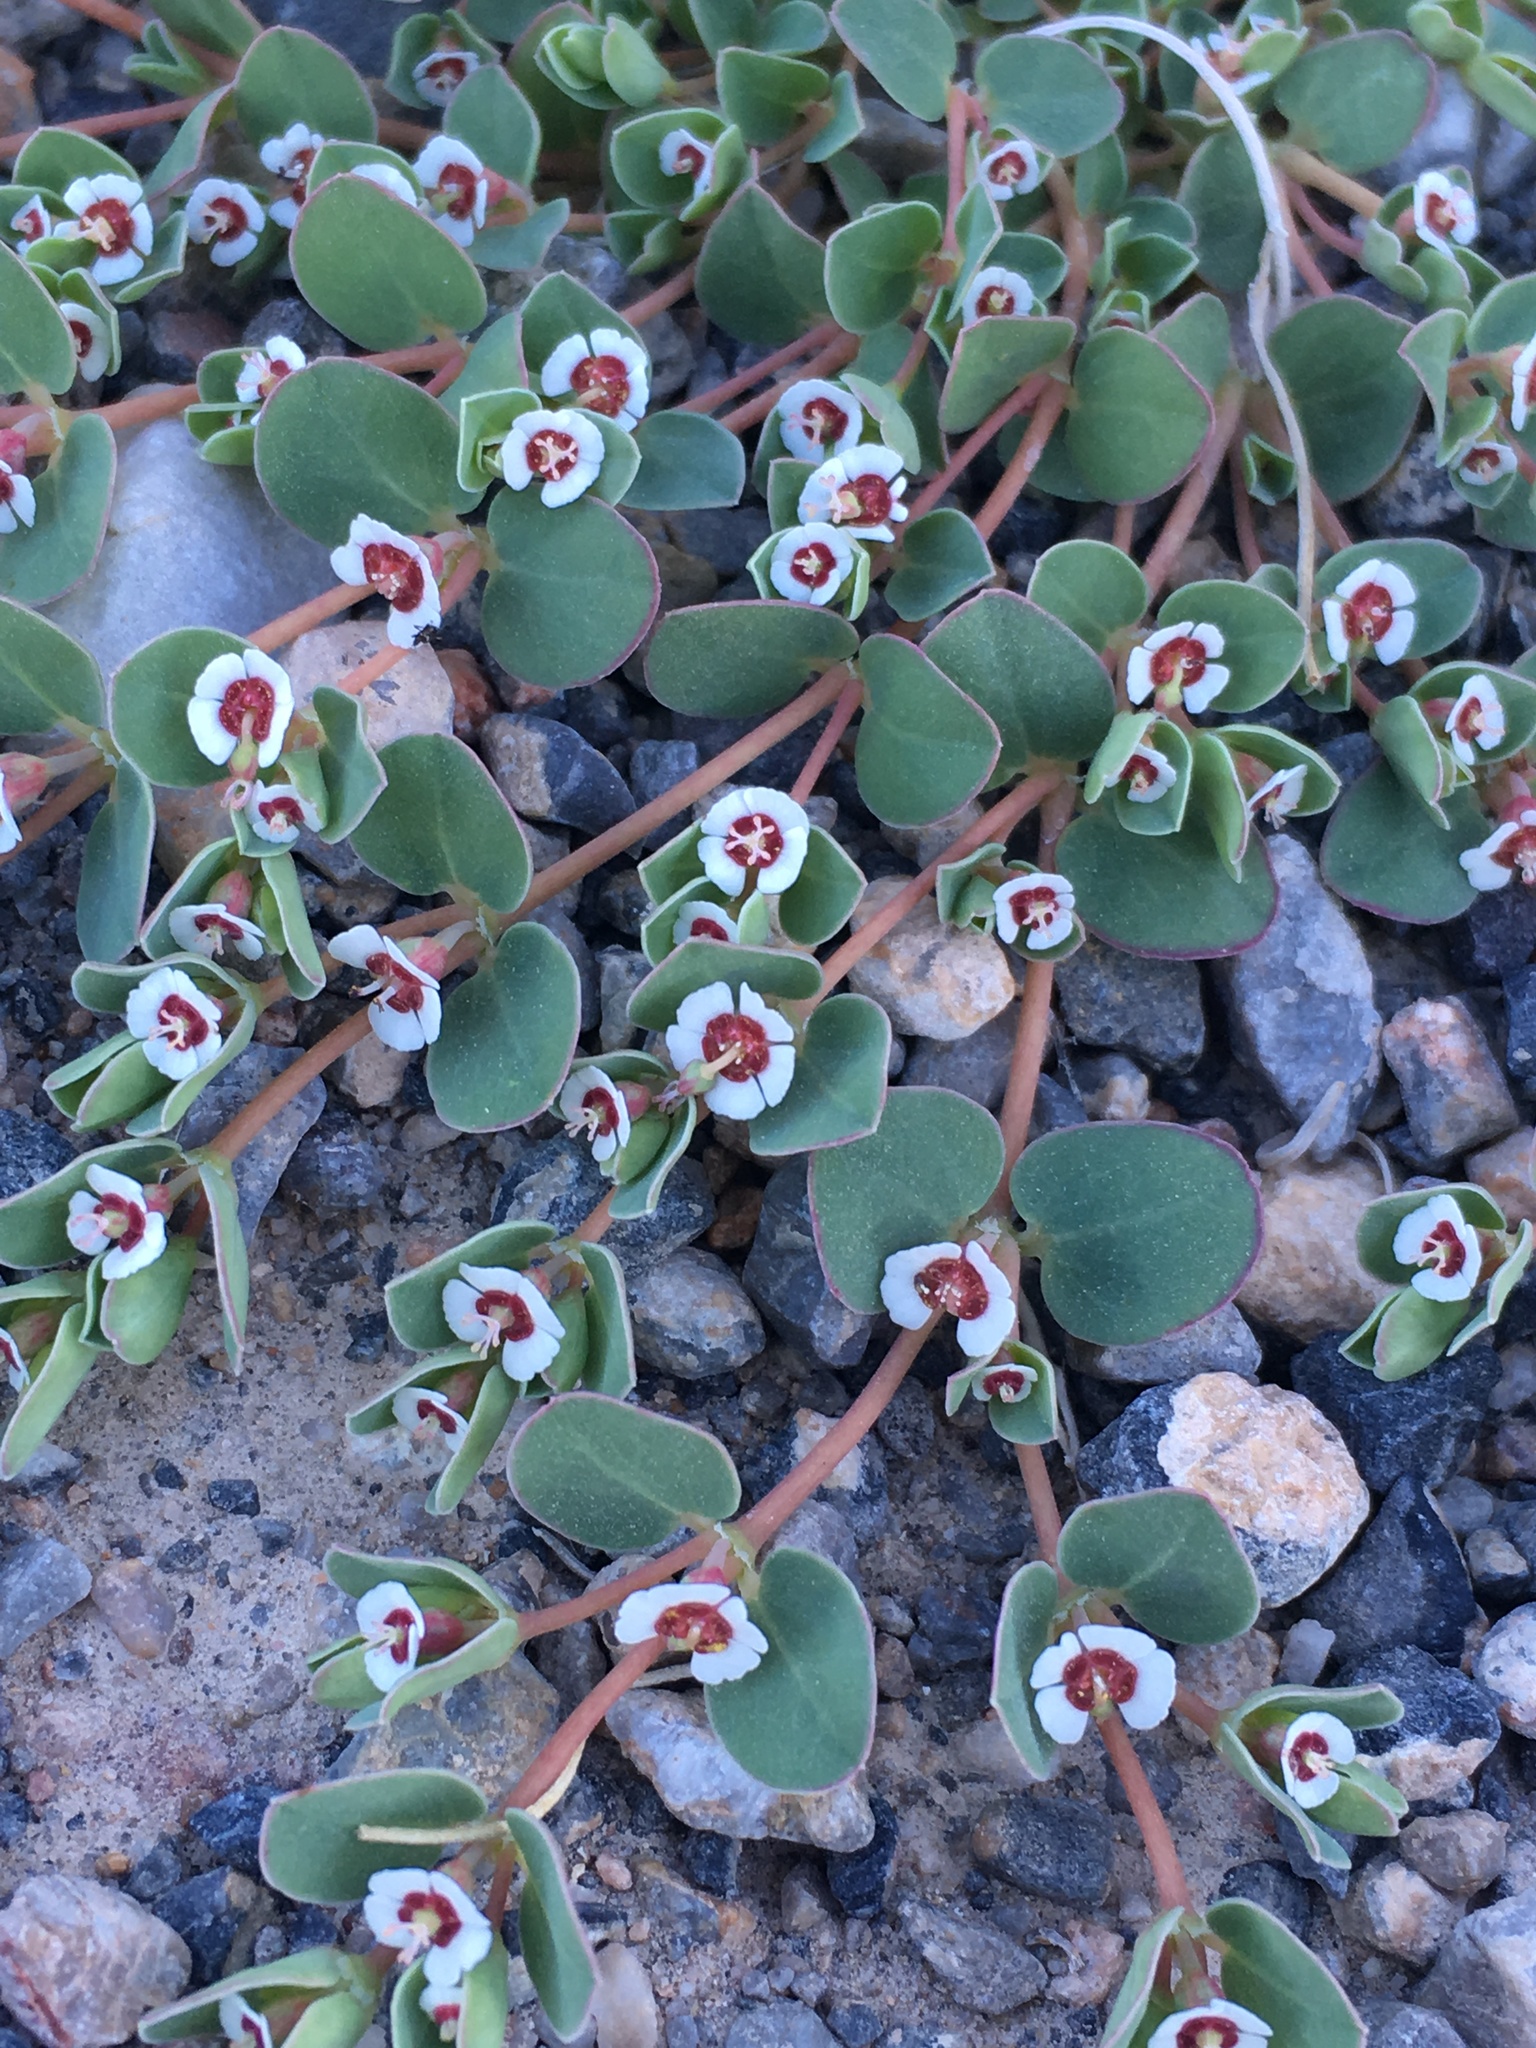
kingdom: Plantae
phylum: Tracheophyta
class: Magnoliopsida
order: Malpighiales
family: Euphorbiaceae
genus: Euphorbia
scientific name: Euphorbia albomarginata
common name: Whitemargin sandmat
